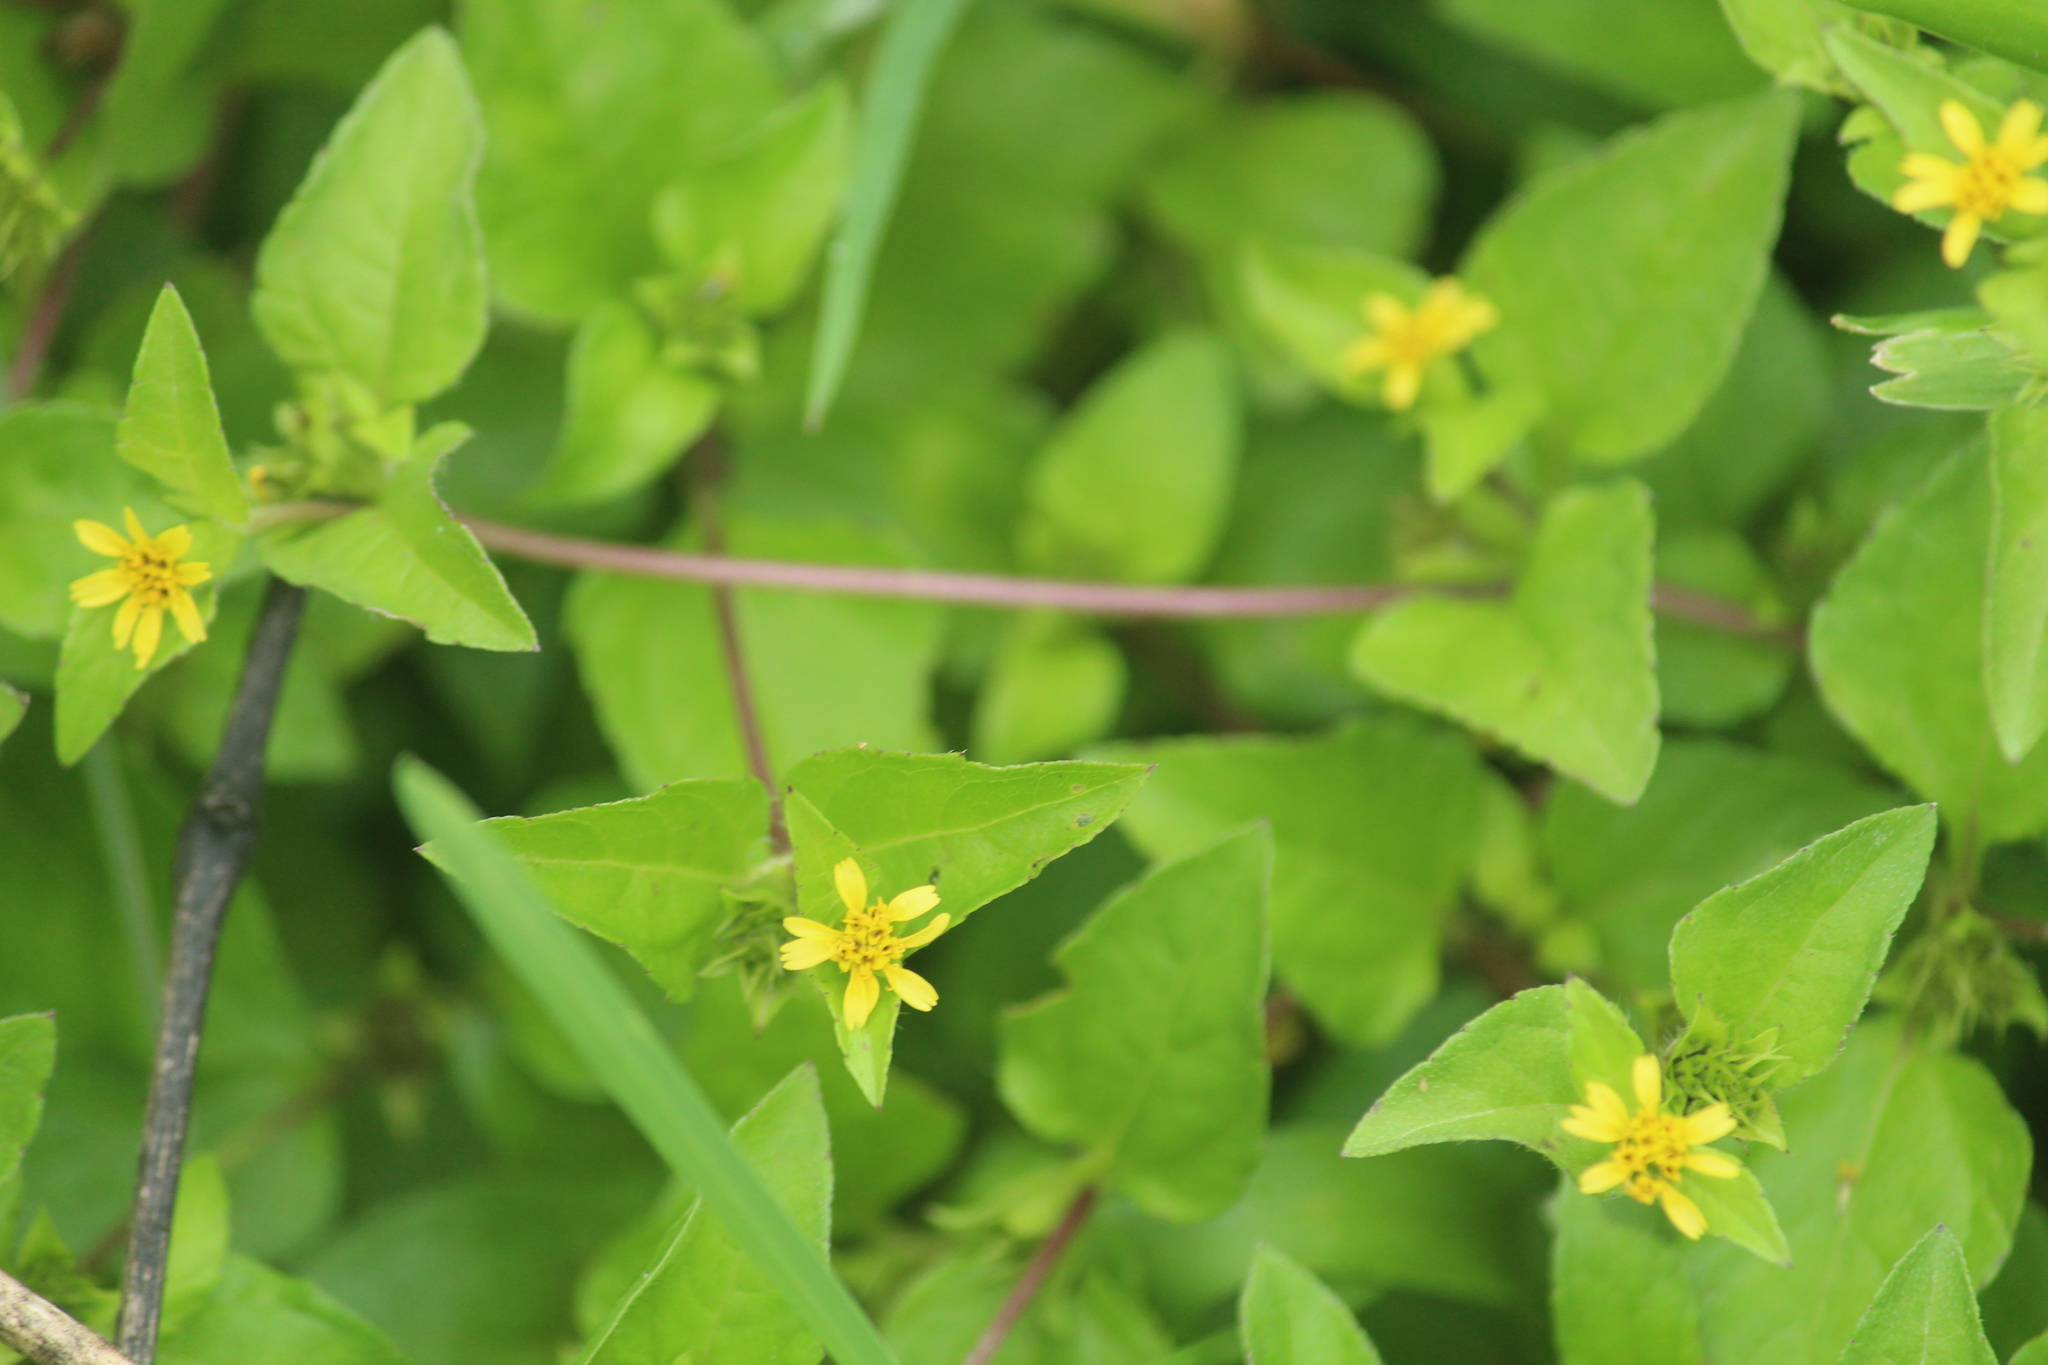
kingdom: Plantae
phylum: Tracheophyta
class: Magnoliopsida
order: Asterales
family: Asteraceae
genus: Calyptocarpus
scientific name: Calyptocarpus vialis
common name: Straggler daisy
